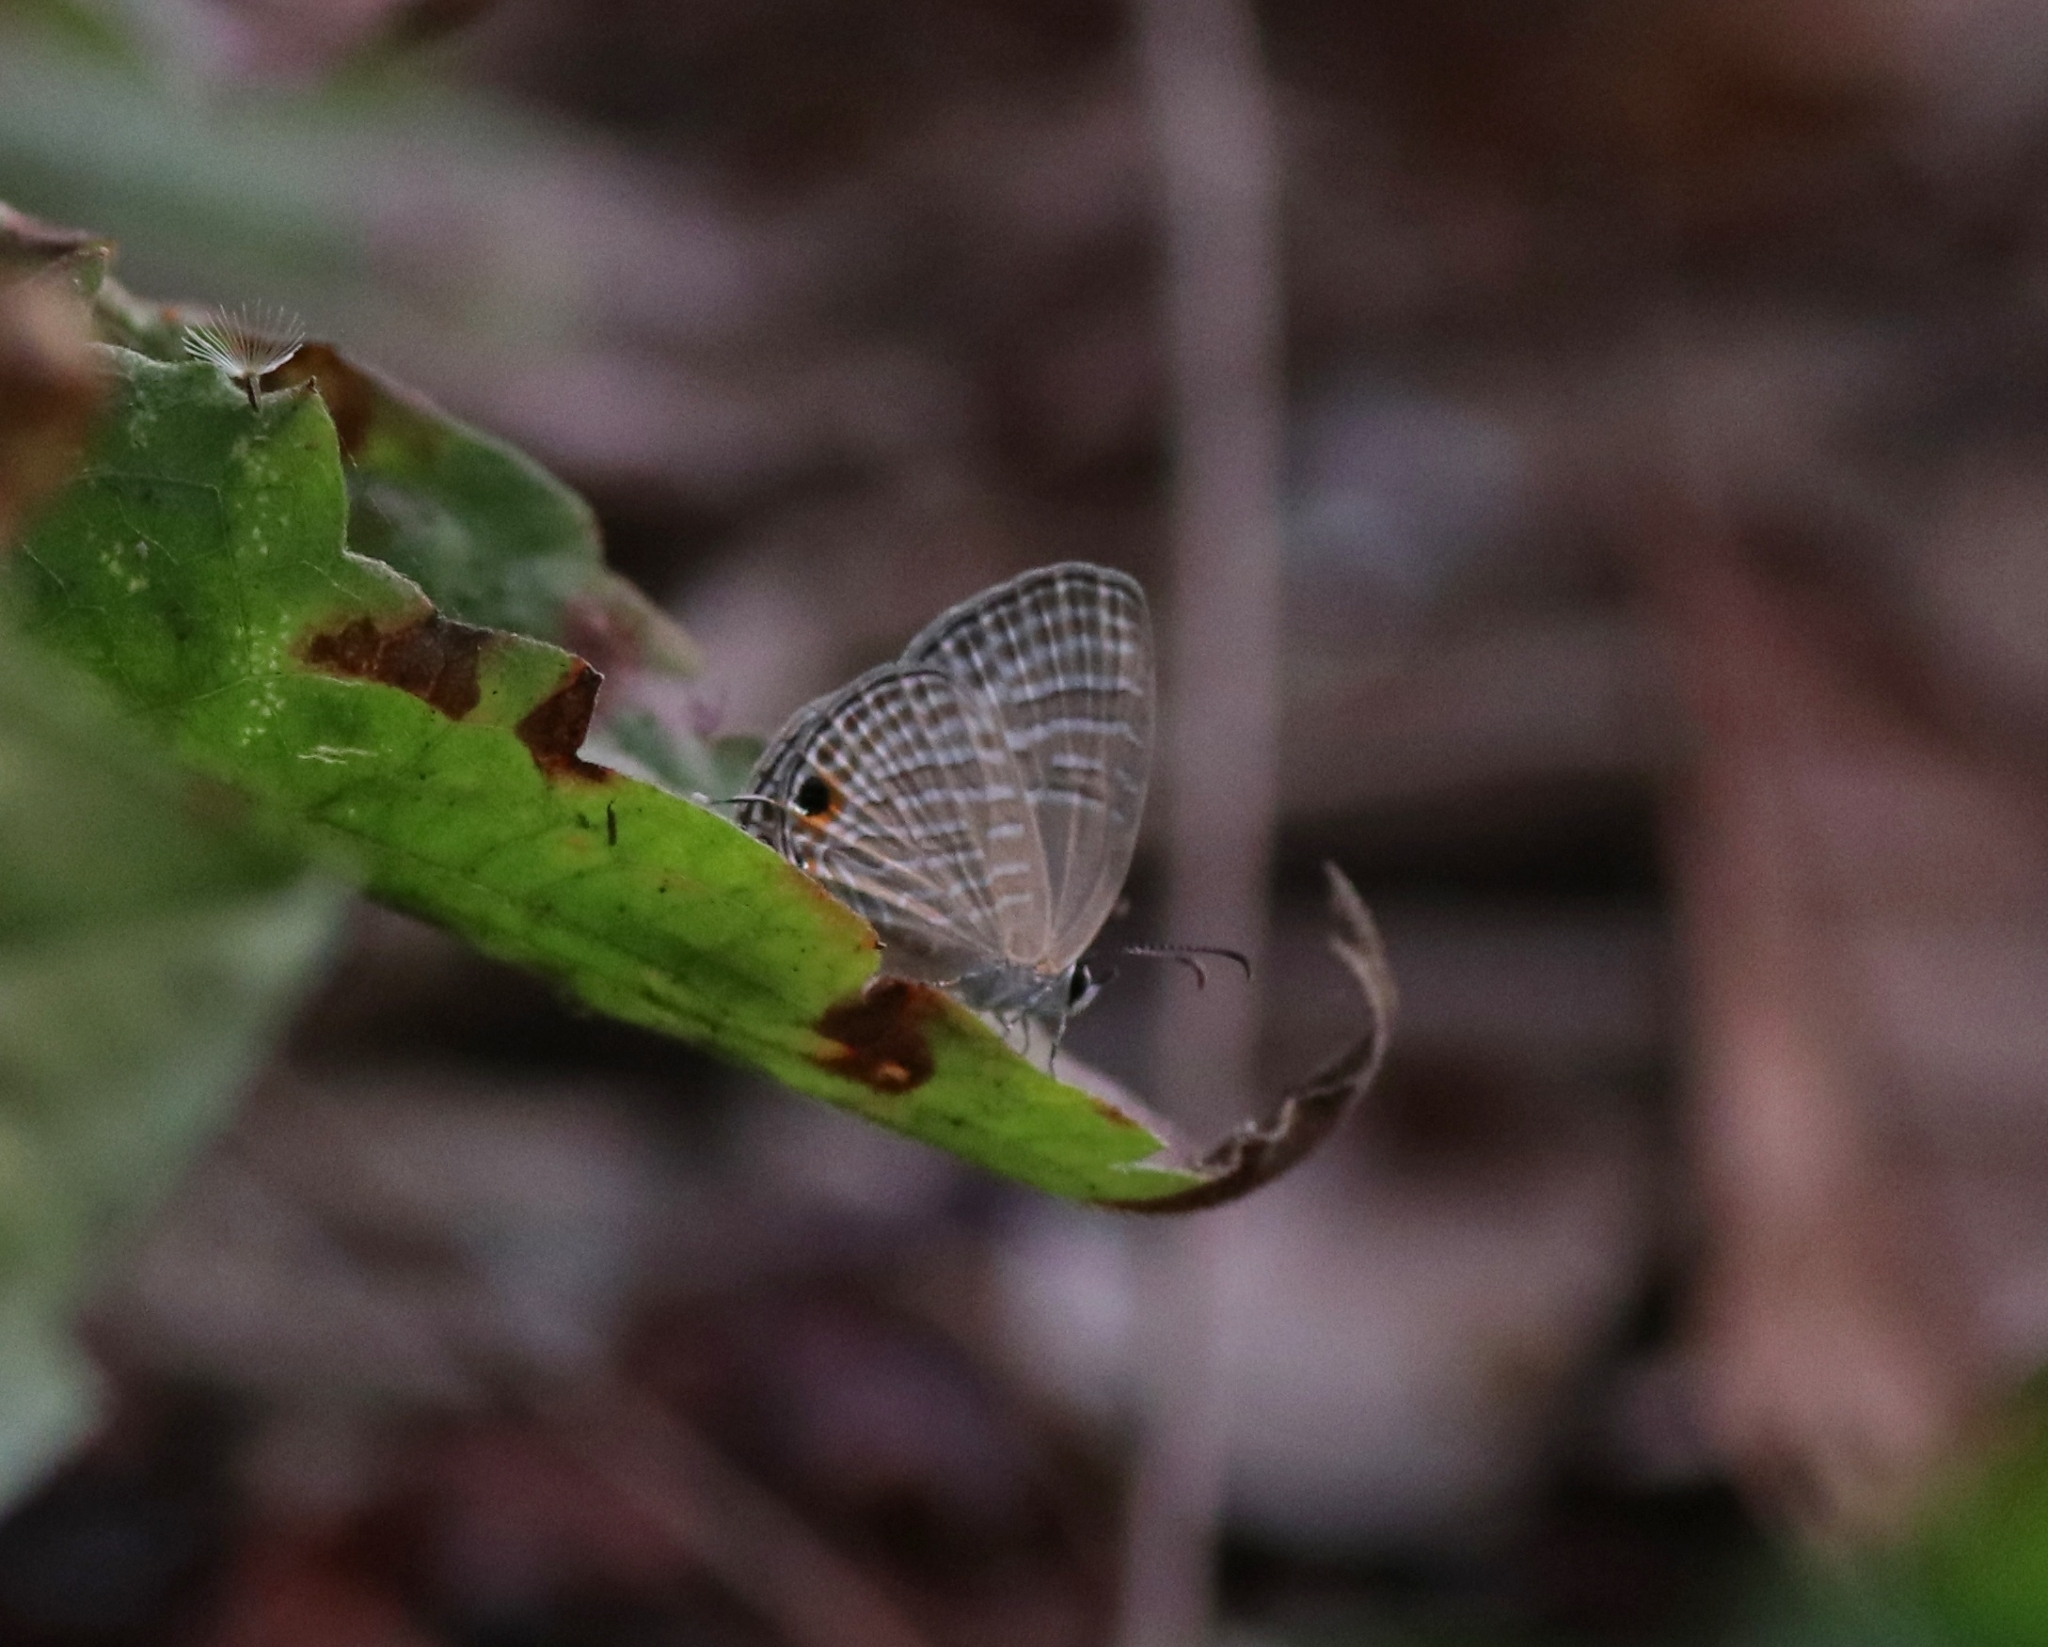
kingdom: Animalia
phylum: Arthropoda
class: Insecta
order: Lepidoptera
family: Lycaenidae
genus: Jamides
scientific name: Jamides celeno
